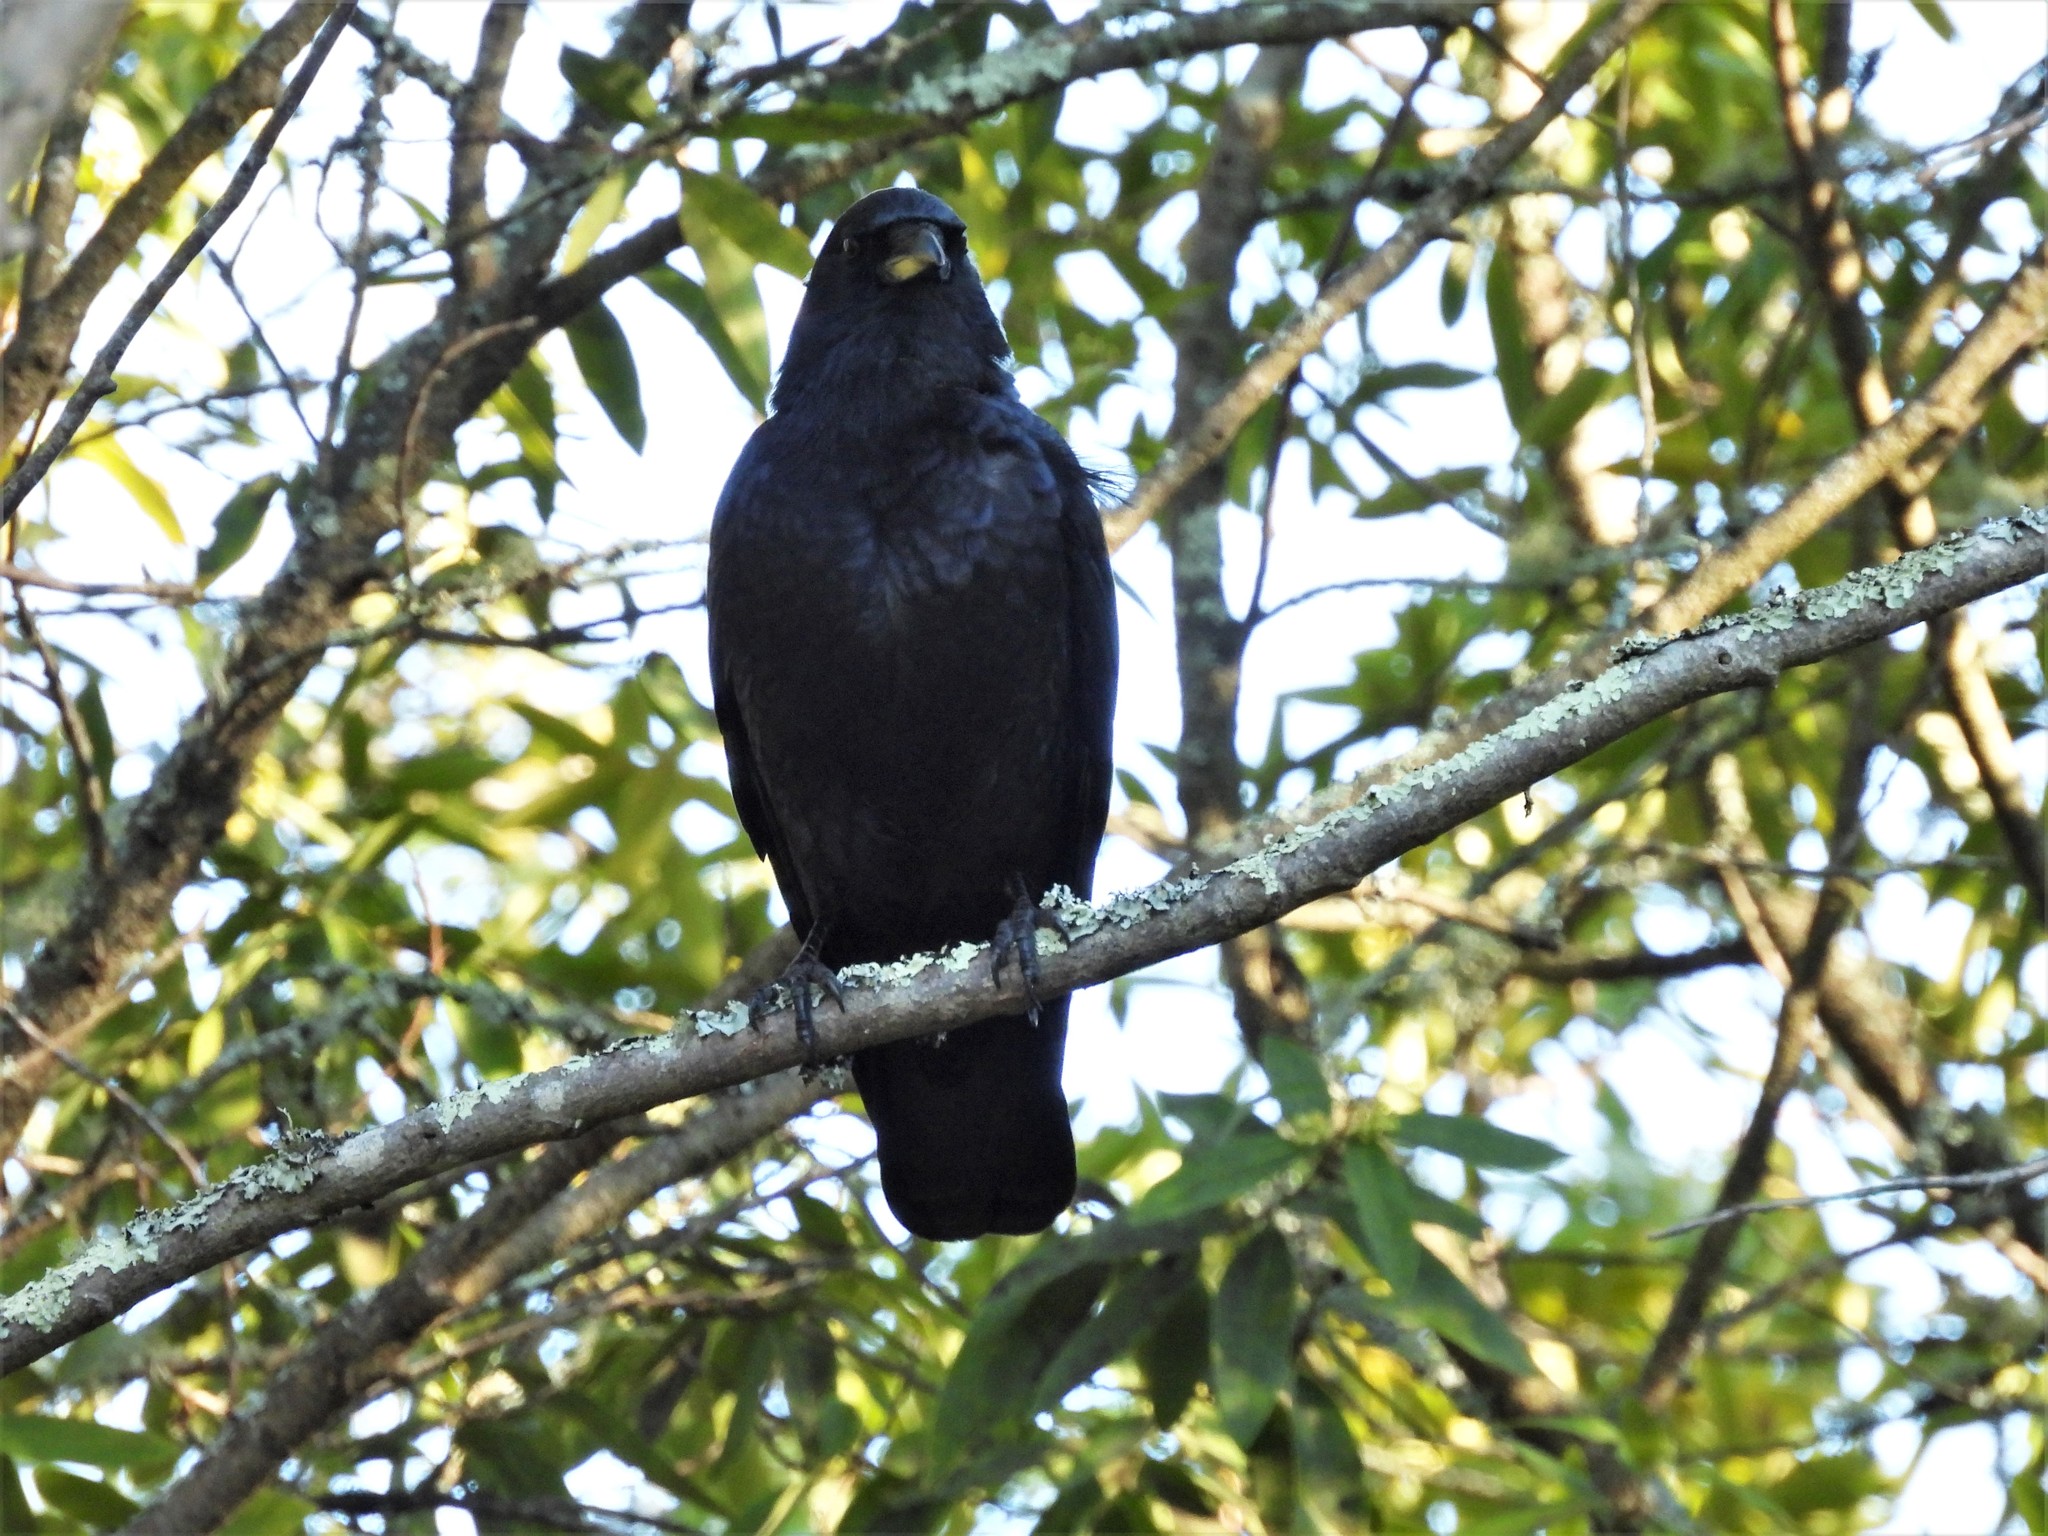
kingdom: Animalia
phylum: Chordata
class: Aves
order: Passeriformes
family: Corvidae
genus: Corvus
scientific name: Corvus brachyrhynchos
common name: American crow
